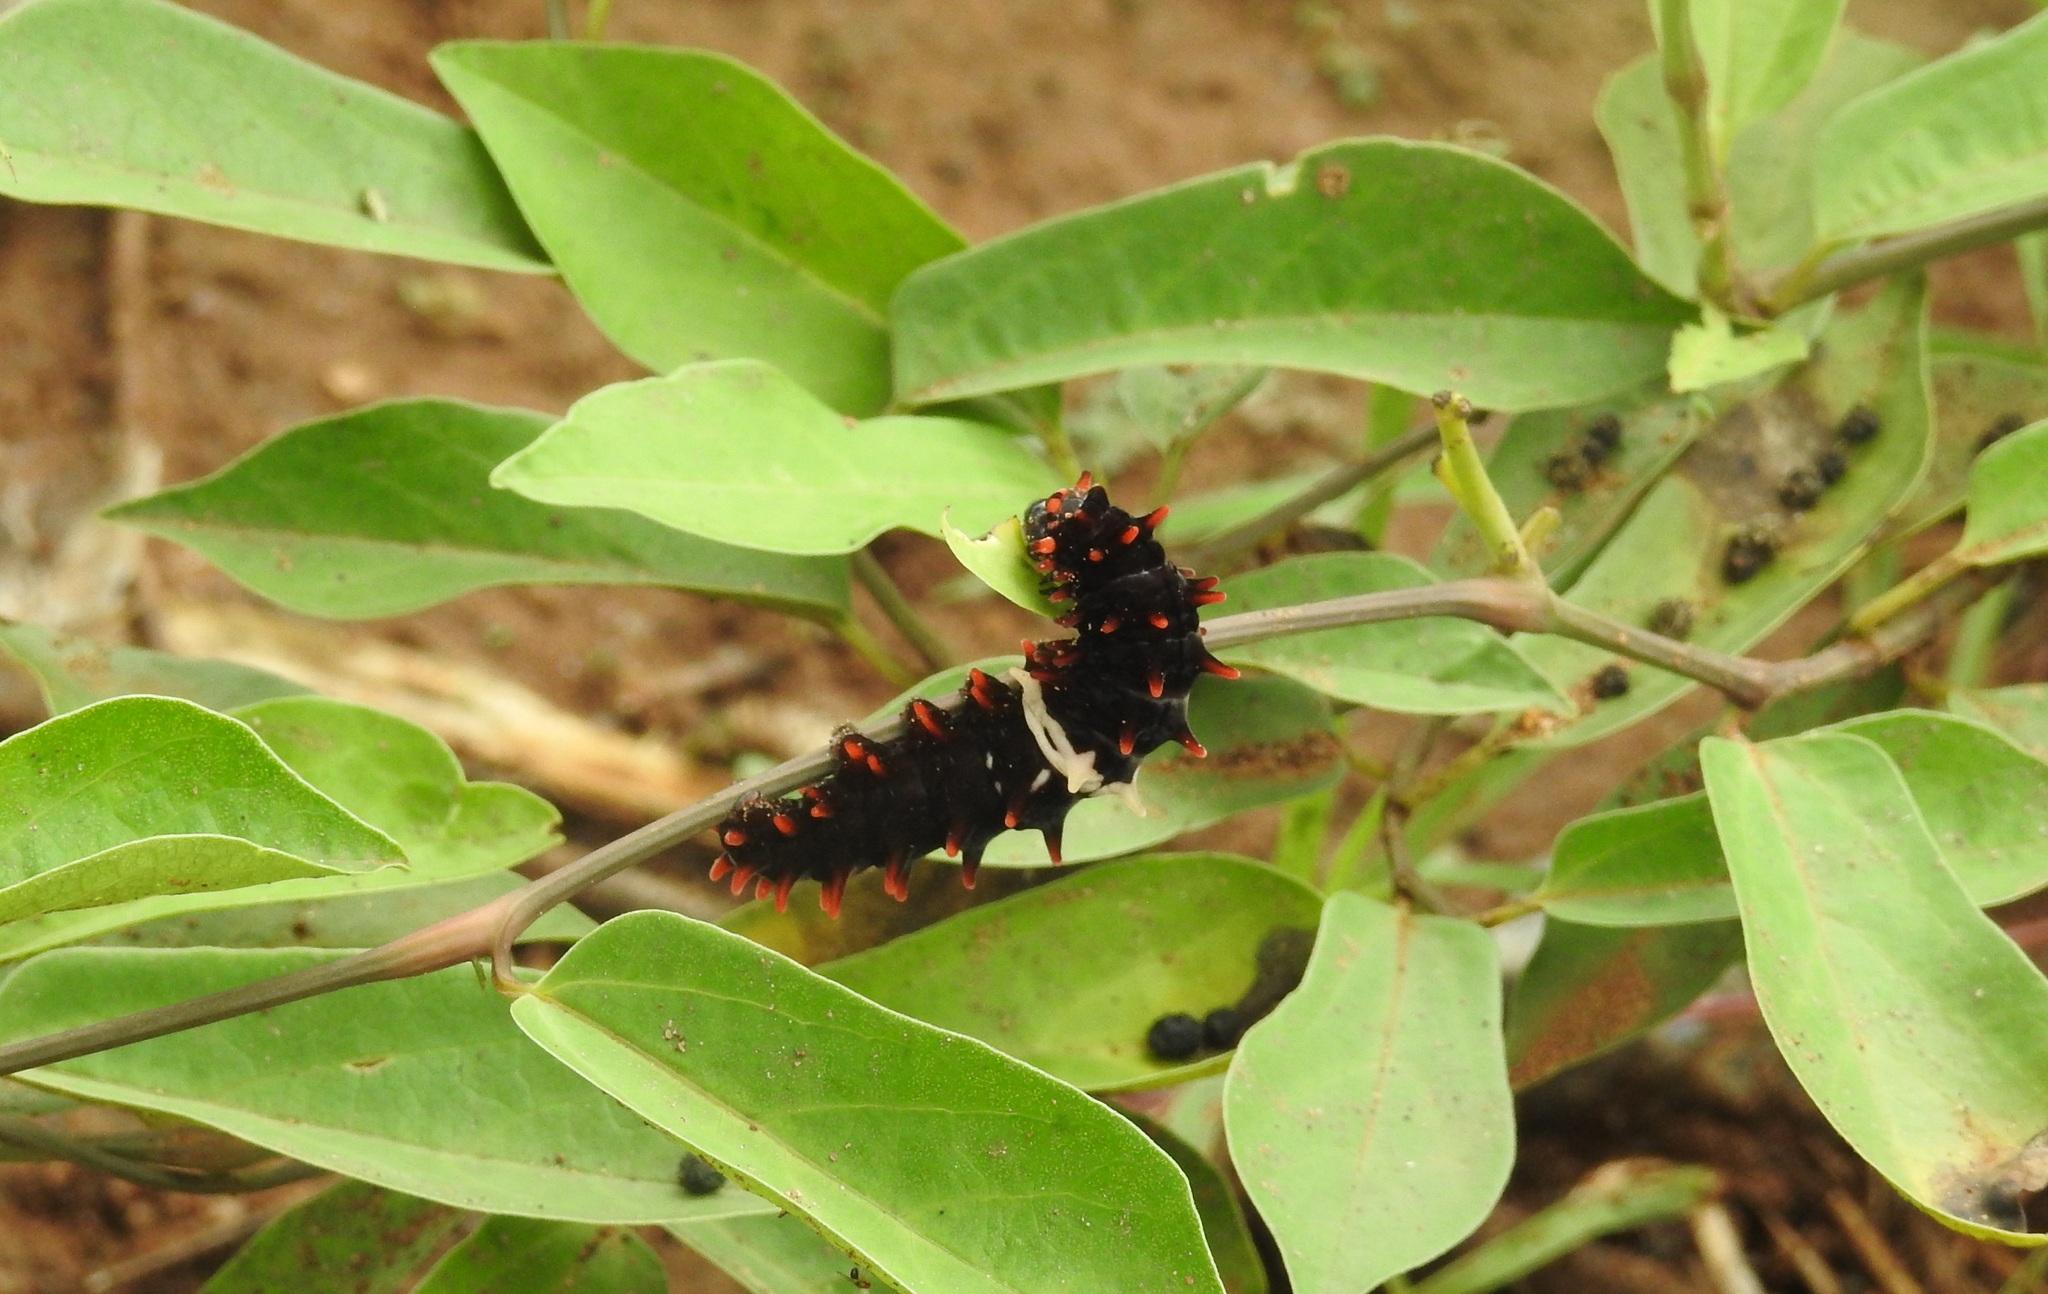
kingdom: Animalia
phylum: Arthropoda
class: Insecta
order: Lepidoptera
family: Papilionidae
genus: Pachliopta
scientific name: Pachliopta aristolochiae
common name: Common rose
